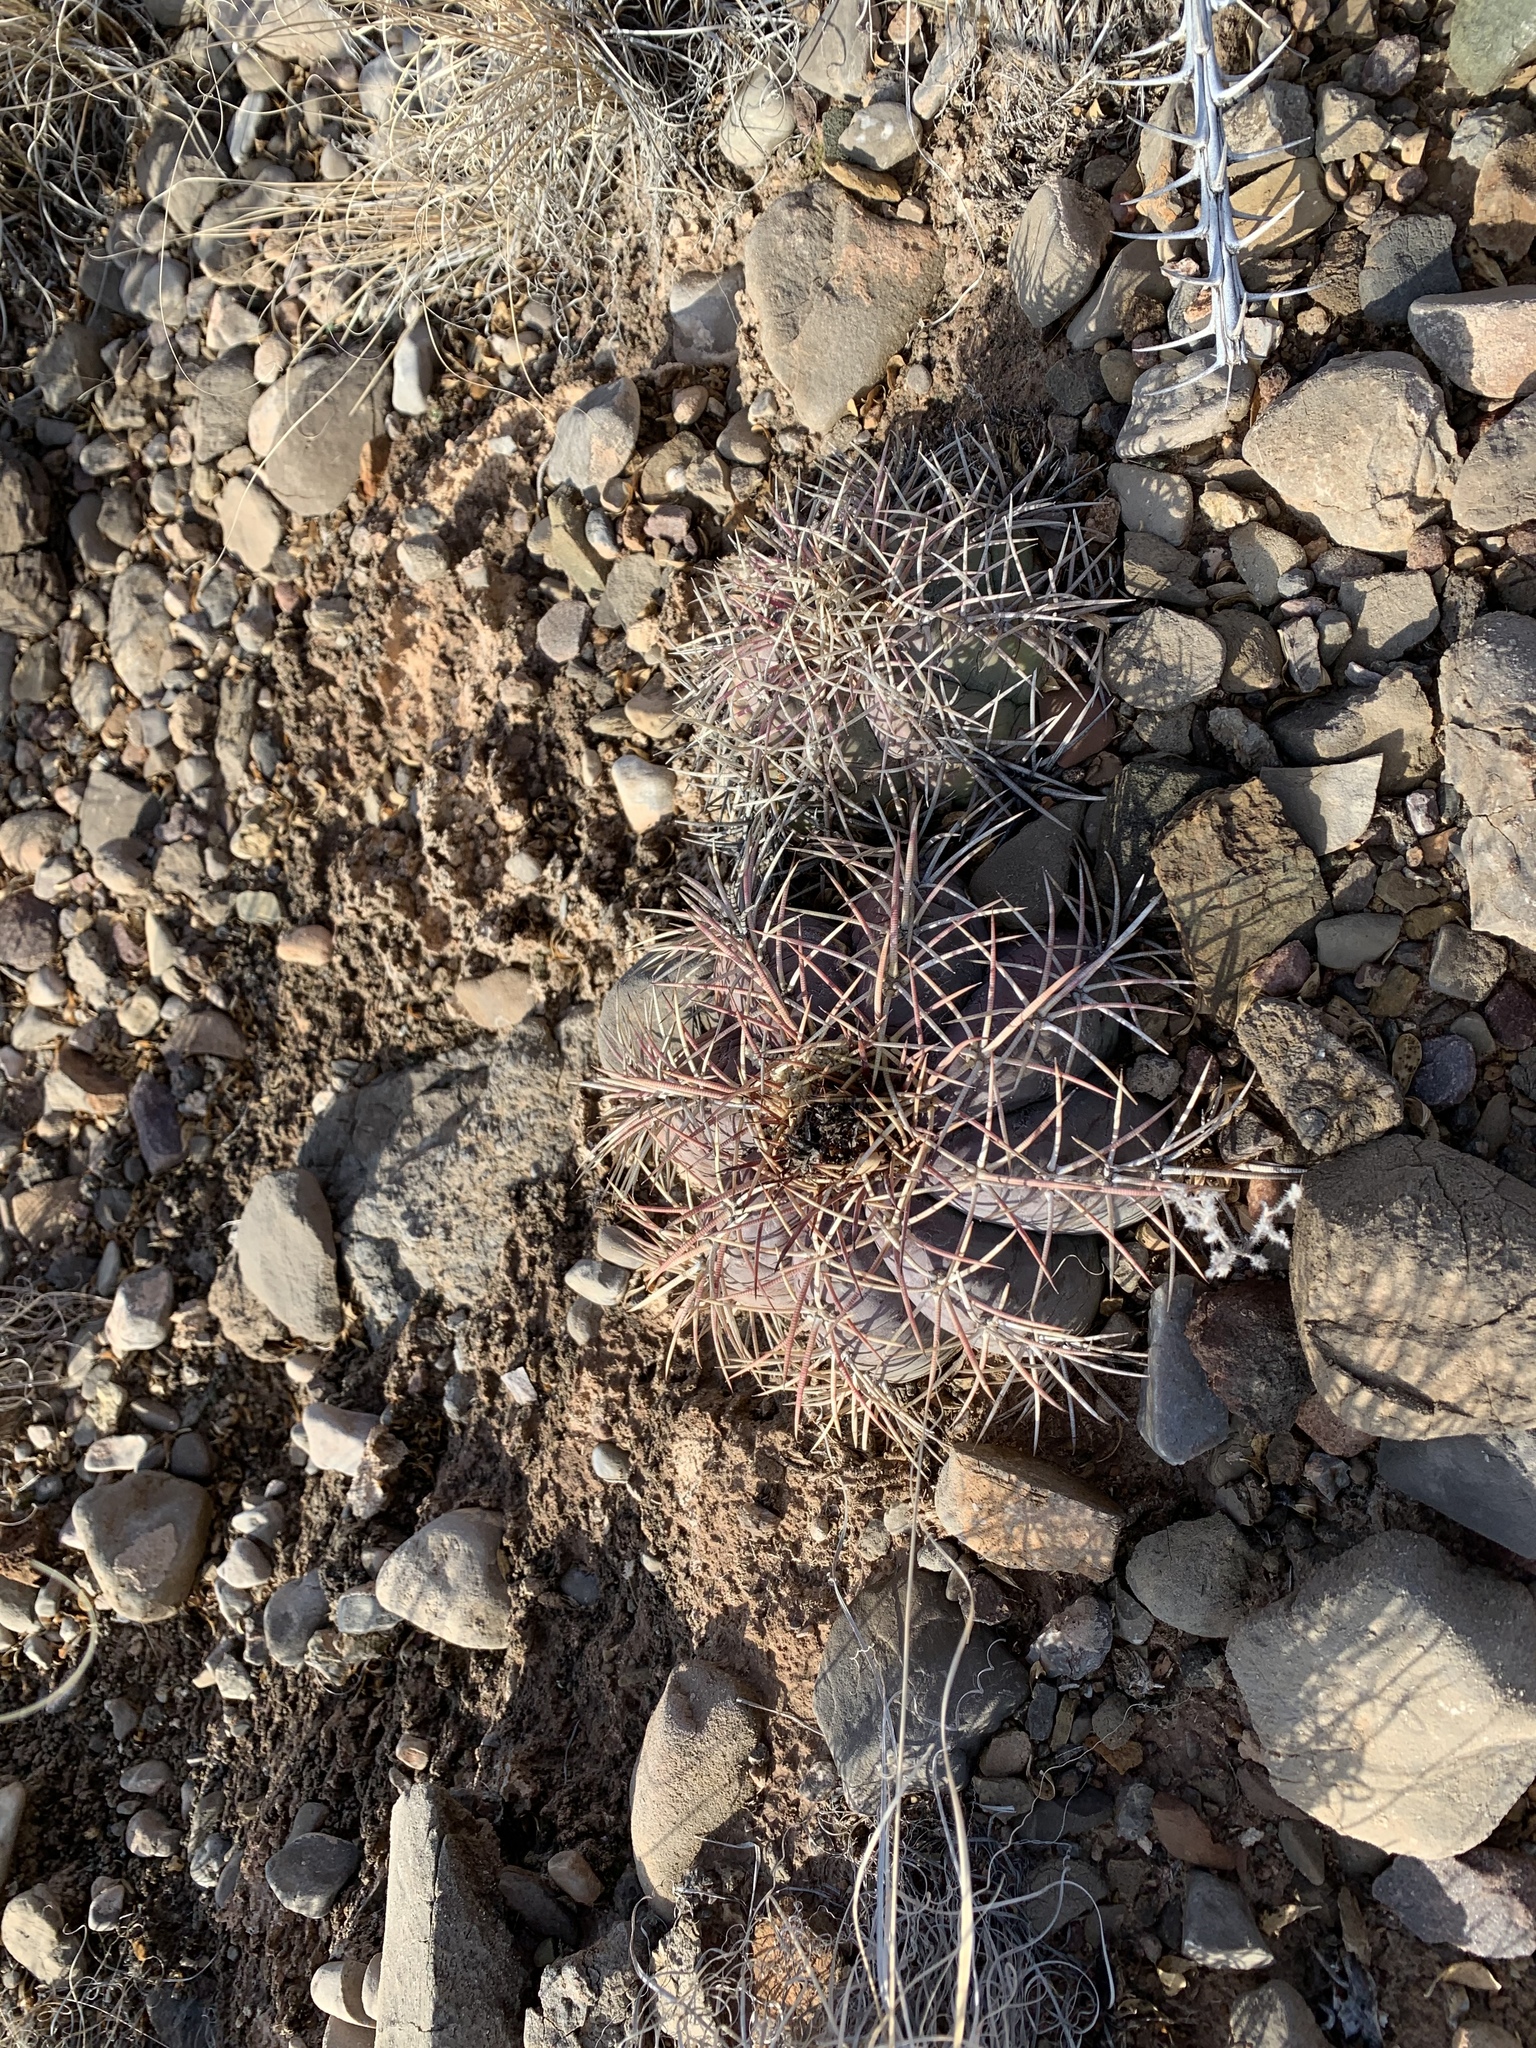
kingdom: Plantae
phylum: Tracheophyta
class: Magnoliopsida
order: Caryophyllales
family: Cactaceae
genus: Echinocactus
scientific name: Echinocactus horizonthalonius
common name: Devilshead
